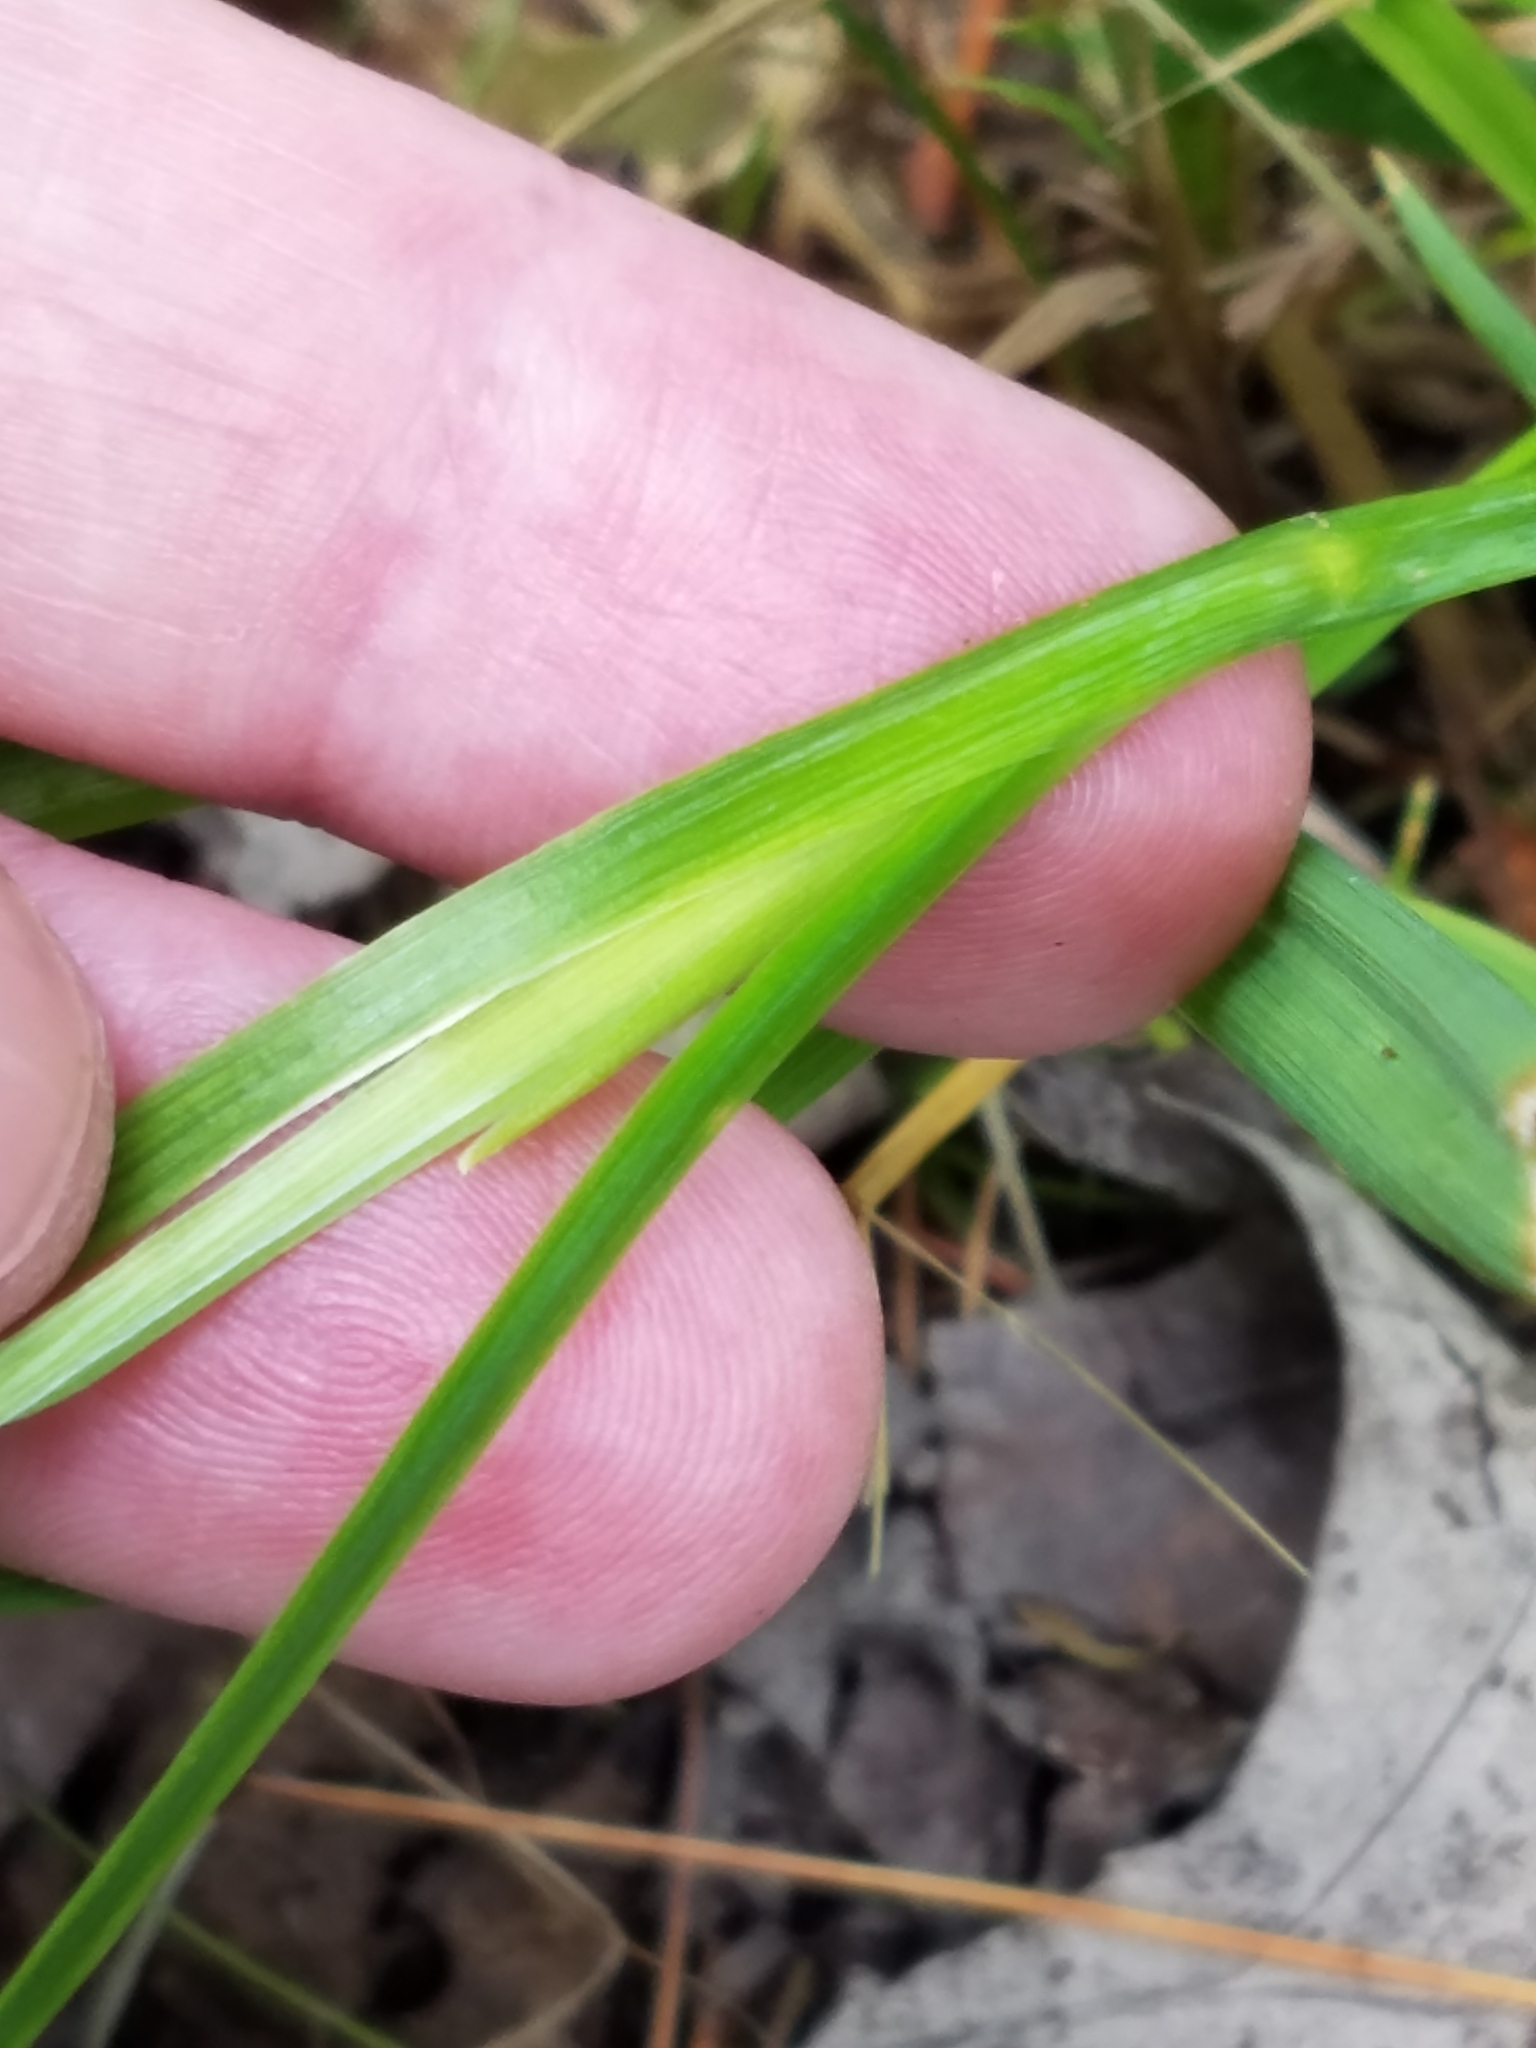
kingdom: Plantae
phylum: Tracheophyta
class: Liliopsida
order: Asparagales
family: Iridaceae
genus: Sisyrinchium
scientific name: Sisyrinchium angustifolium
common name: Narrow-leaf blue-eyed-grass
